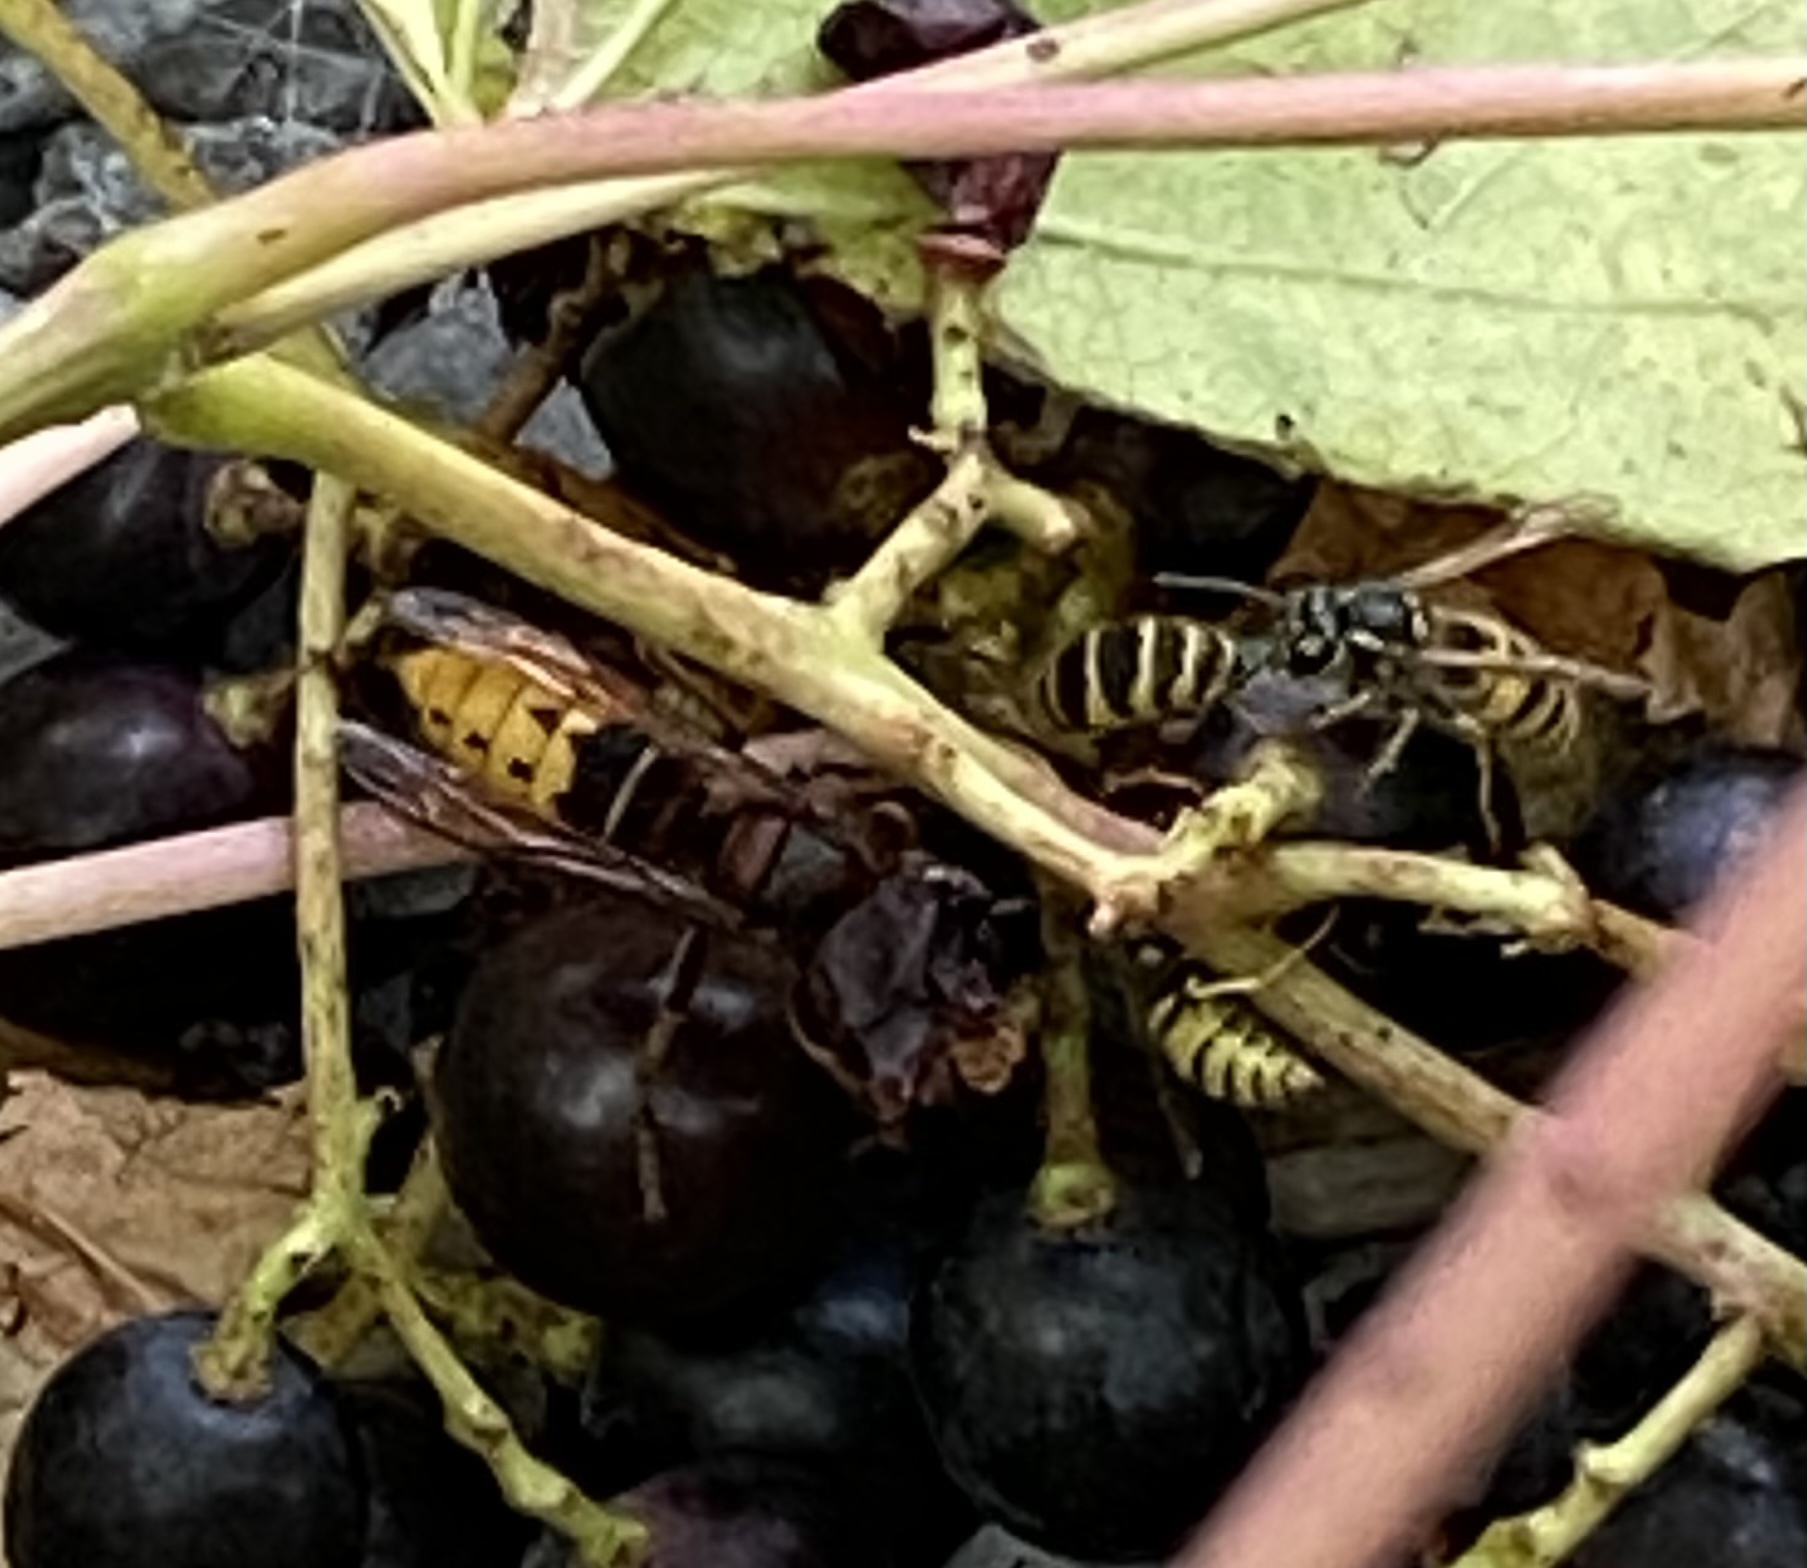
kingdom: Animalia
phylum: Arthropoda
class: Insecta
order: Hymenoptera
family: Vespidae
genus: Vespa
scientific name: Vespa crabro
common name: Hornet
